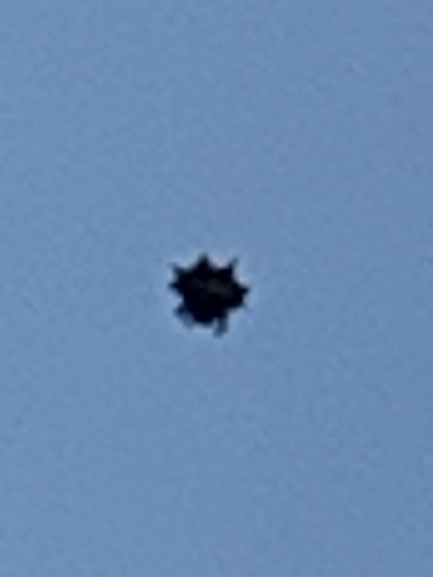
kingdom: Animalia
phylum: Arthropoda
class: Arachnida
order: Araneae
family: Araneidae
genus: Gasteracantha
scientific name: Gasteracantha cancriformis
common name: Orb weavers
